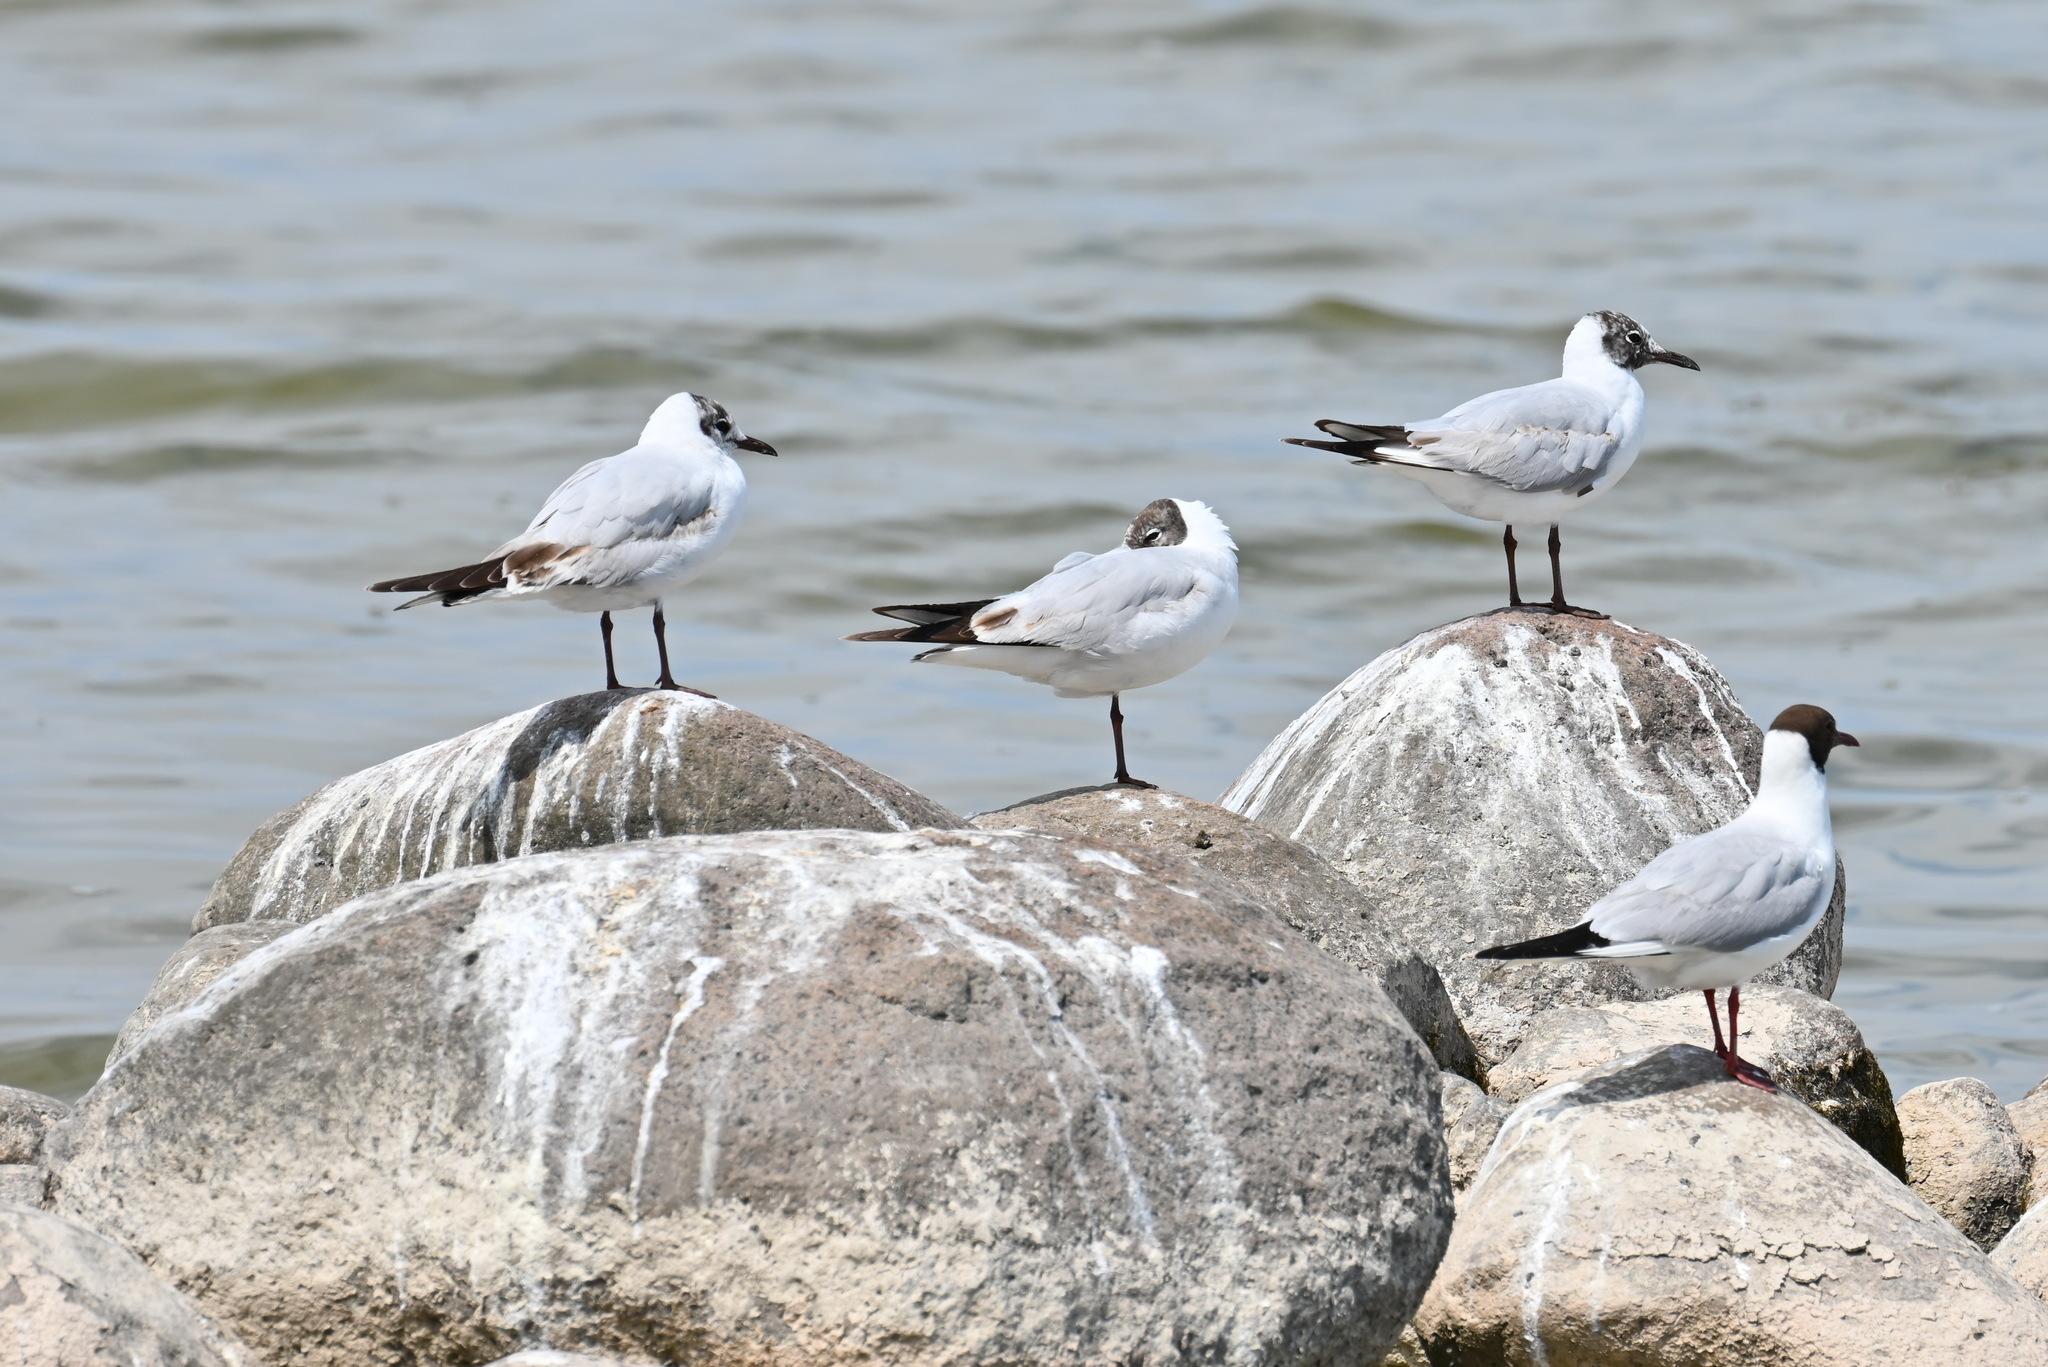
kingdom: Animalia
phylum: Chordata
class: Aves
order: Charadriiformes
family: Laridae
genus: Chroicocephalus
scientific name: Chroicocephalus ridibundus
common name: Black-headed gull
